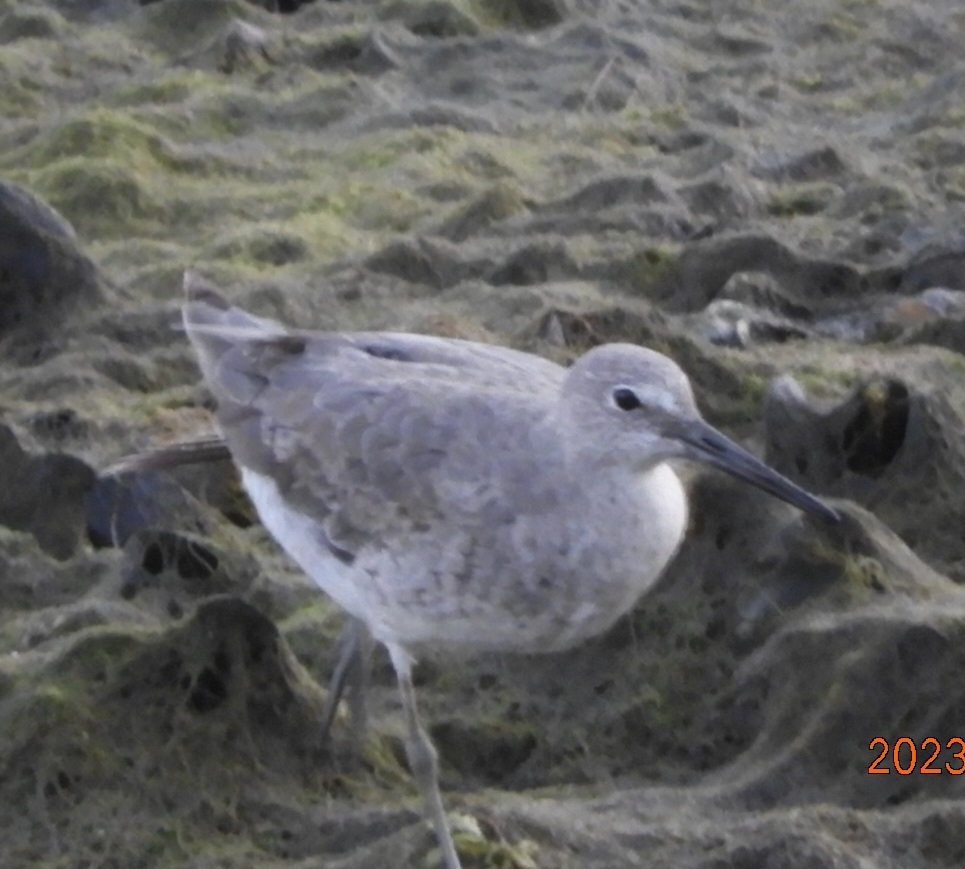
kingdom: Animalia
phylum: Chordata
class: Aves
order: Charadriiformes
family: Scolopacidae
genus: Tringa
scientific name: Tringa semipalmata
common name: Willet
